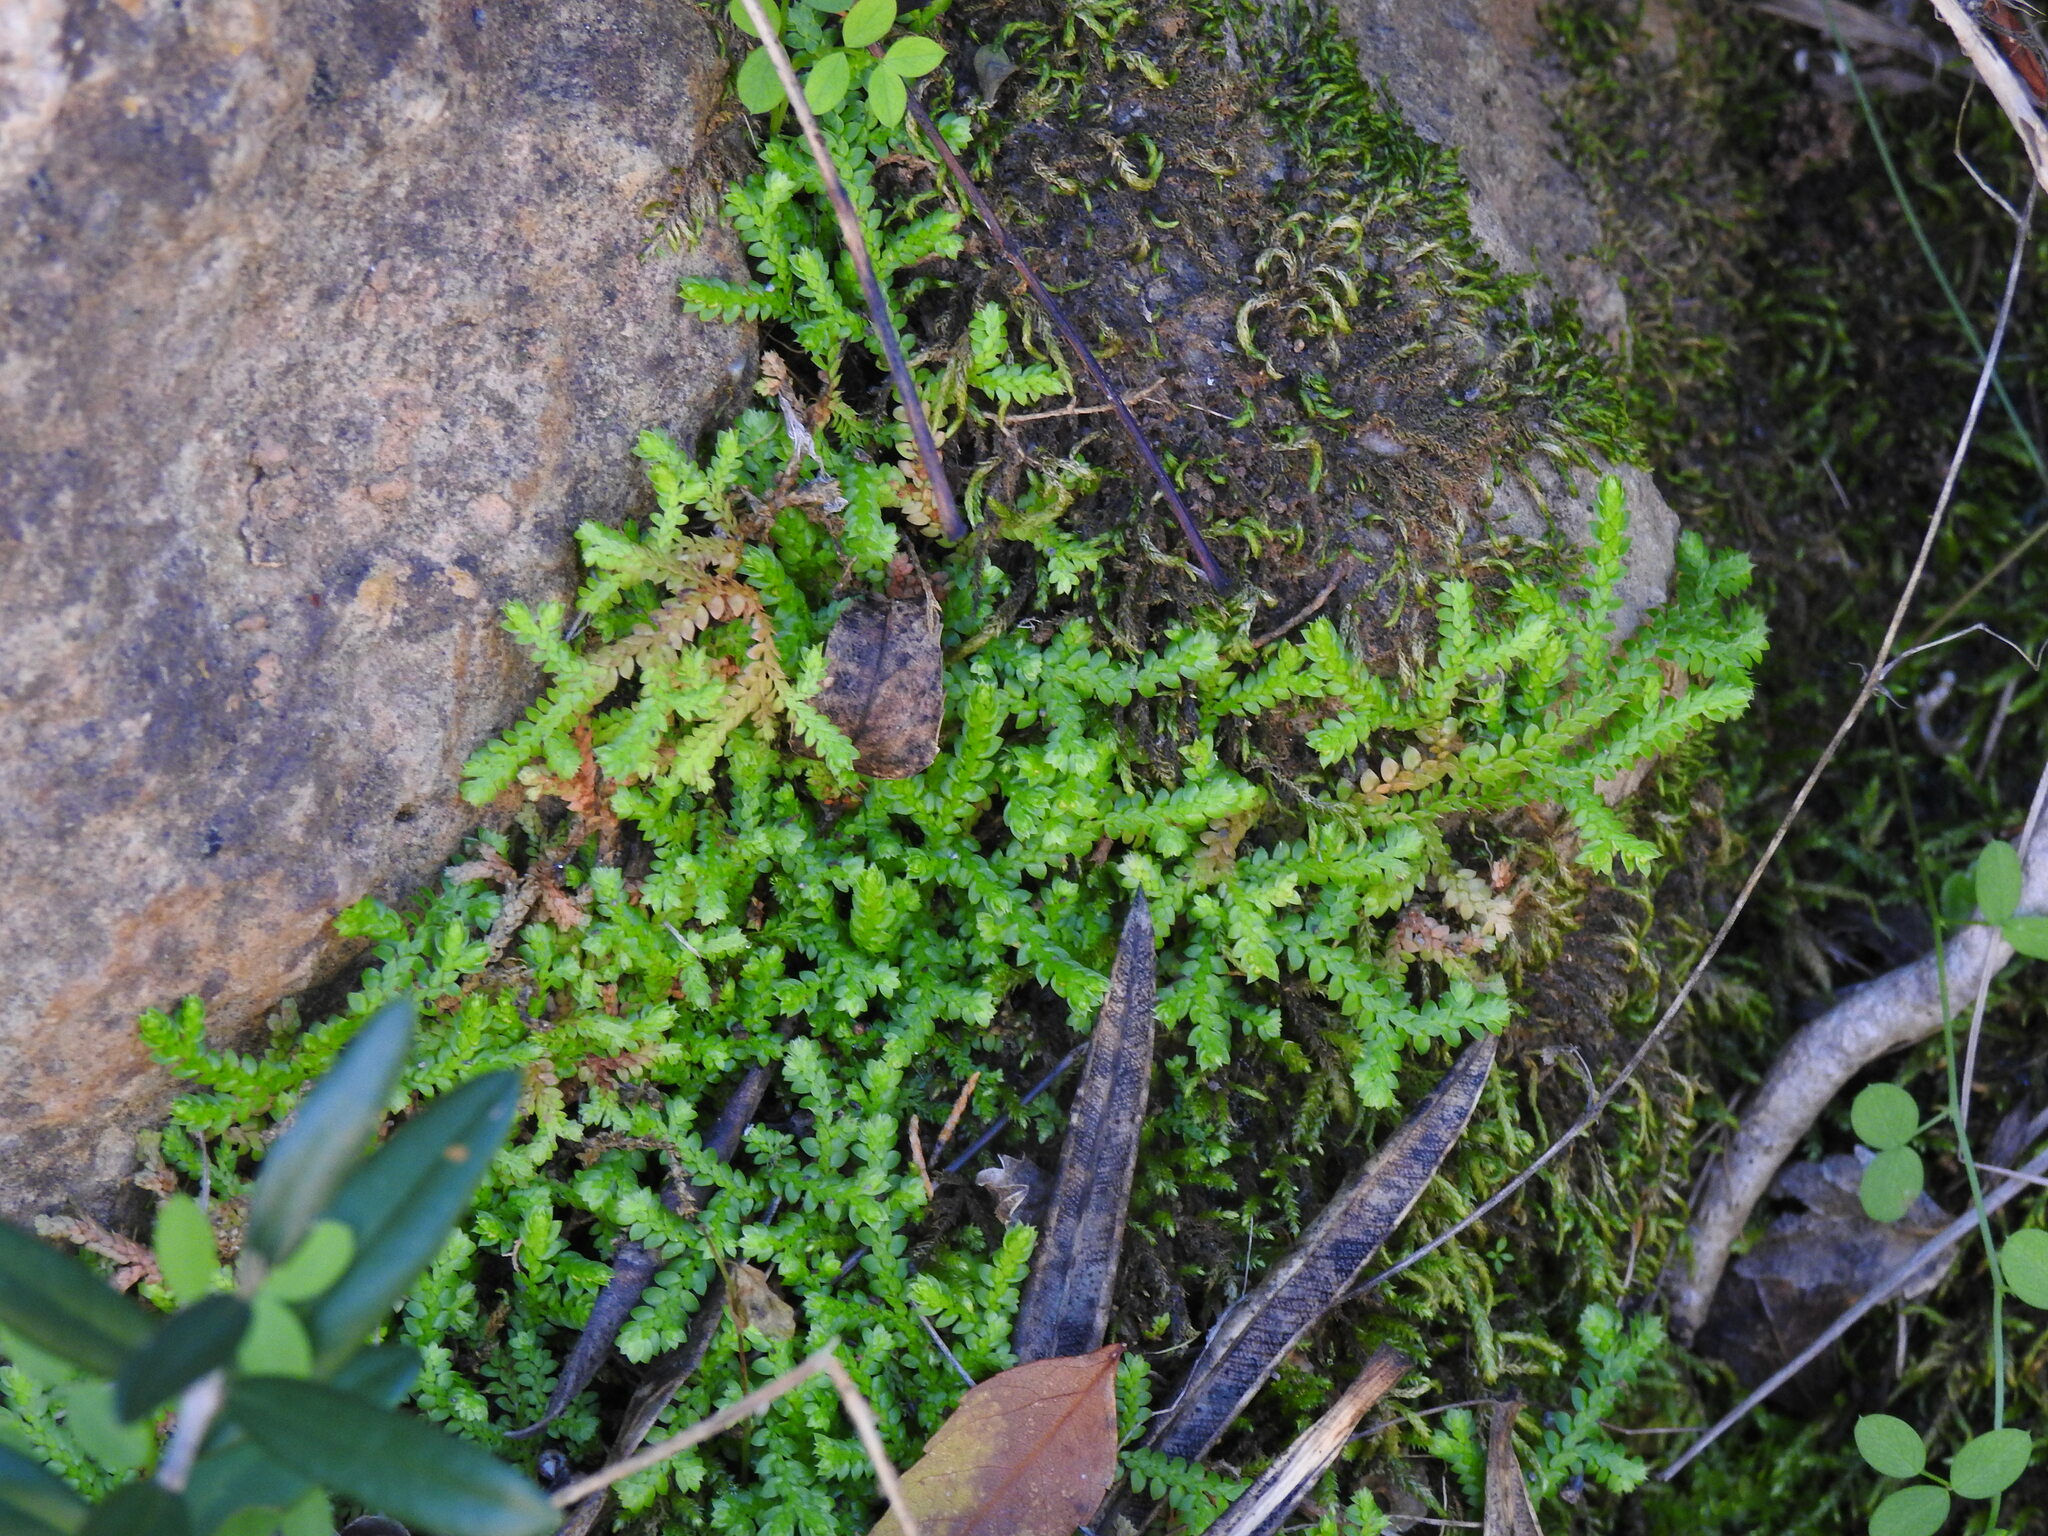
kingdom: Plantae
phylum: Tracheophyta
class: Lycopodiopsida
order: Selaginellales
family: Selaginellaceae
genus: Selaginella
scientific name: Selaginella denticulata
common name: Toothed-leaved clubmoss
